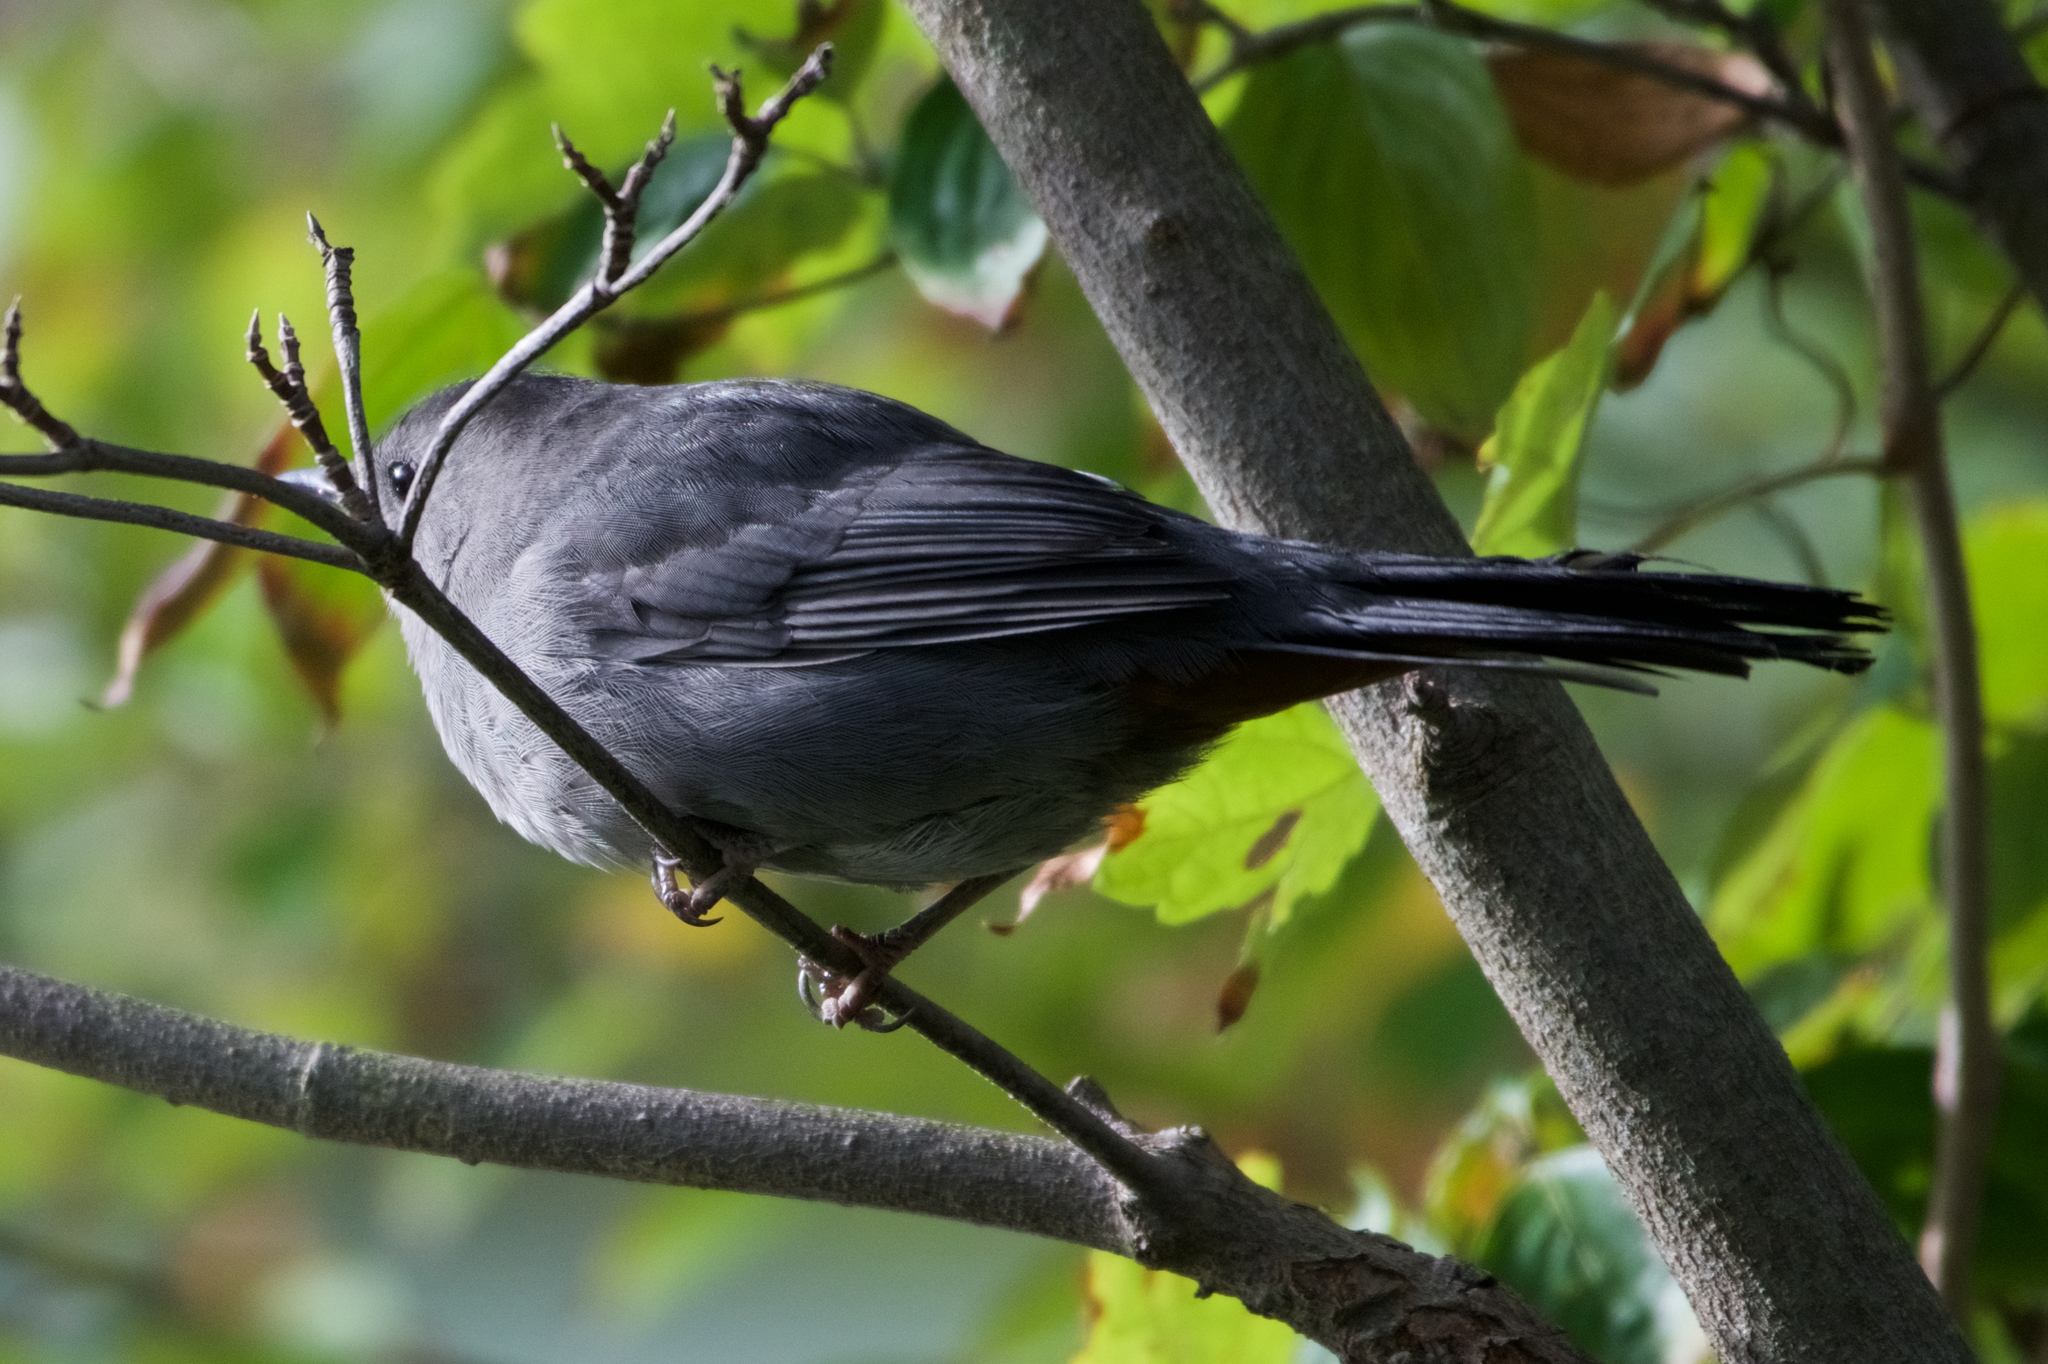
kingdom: Animalia
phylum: Chordata
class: Aves
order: Passeriformes
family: Mimidae
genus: Dumetella
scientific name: Dumetella carolinensis
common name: Gray catbird
